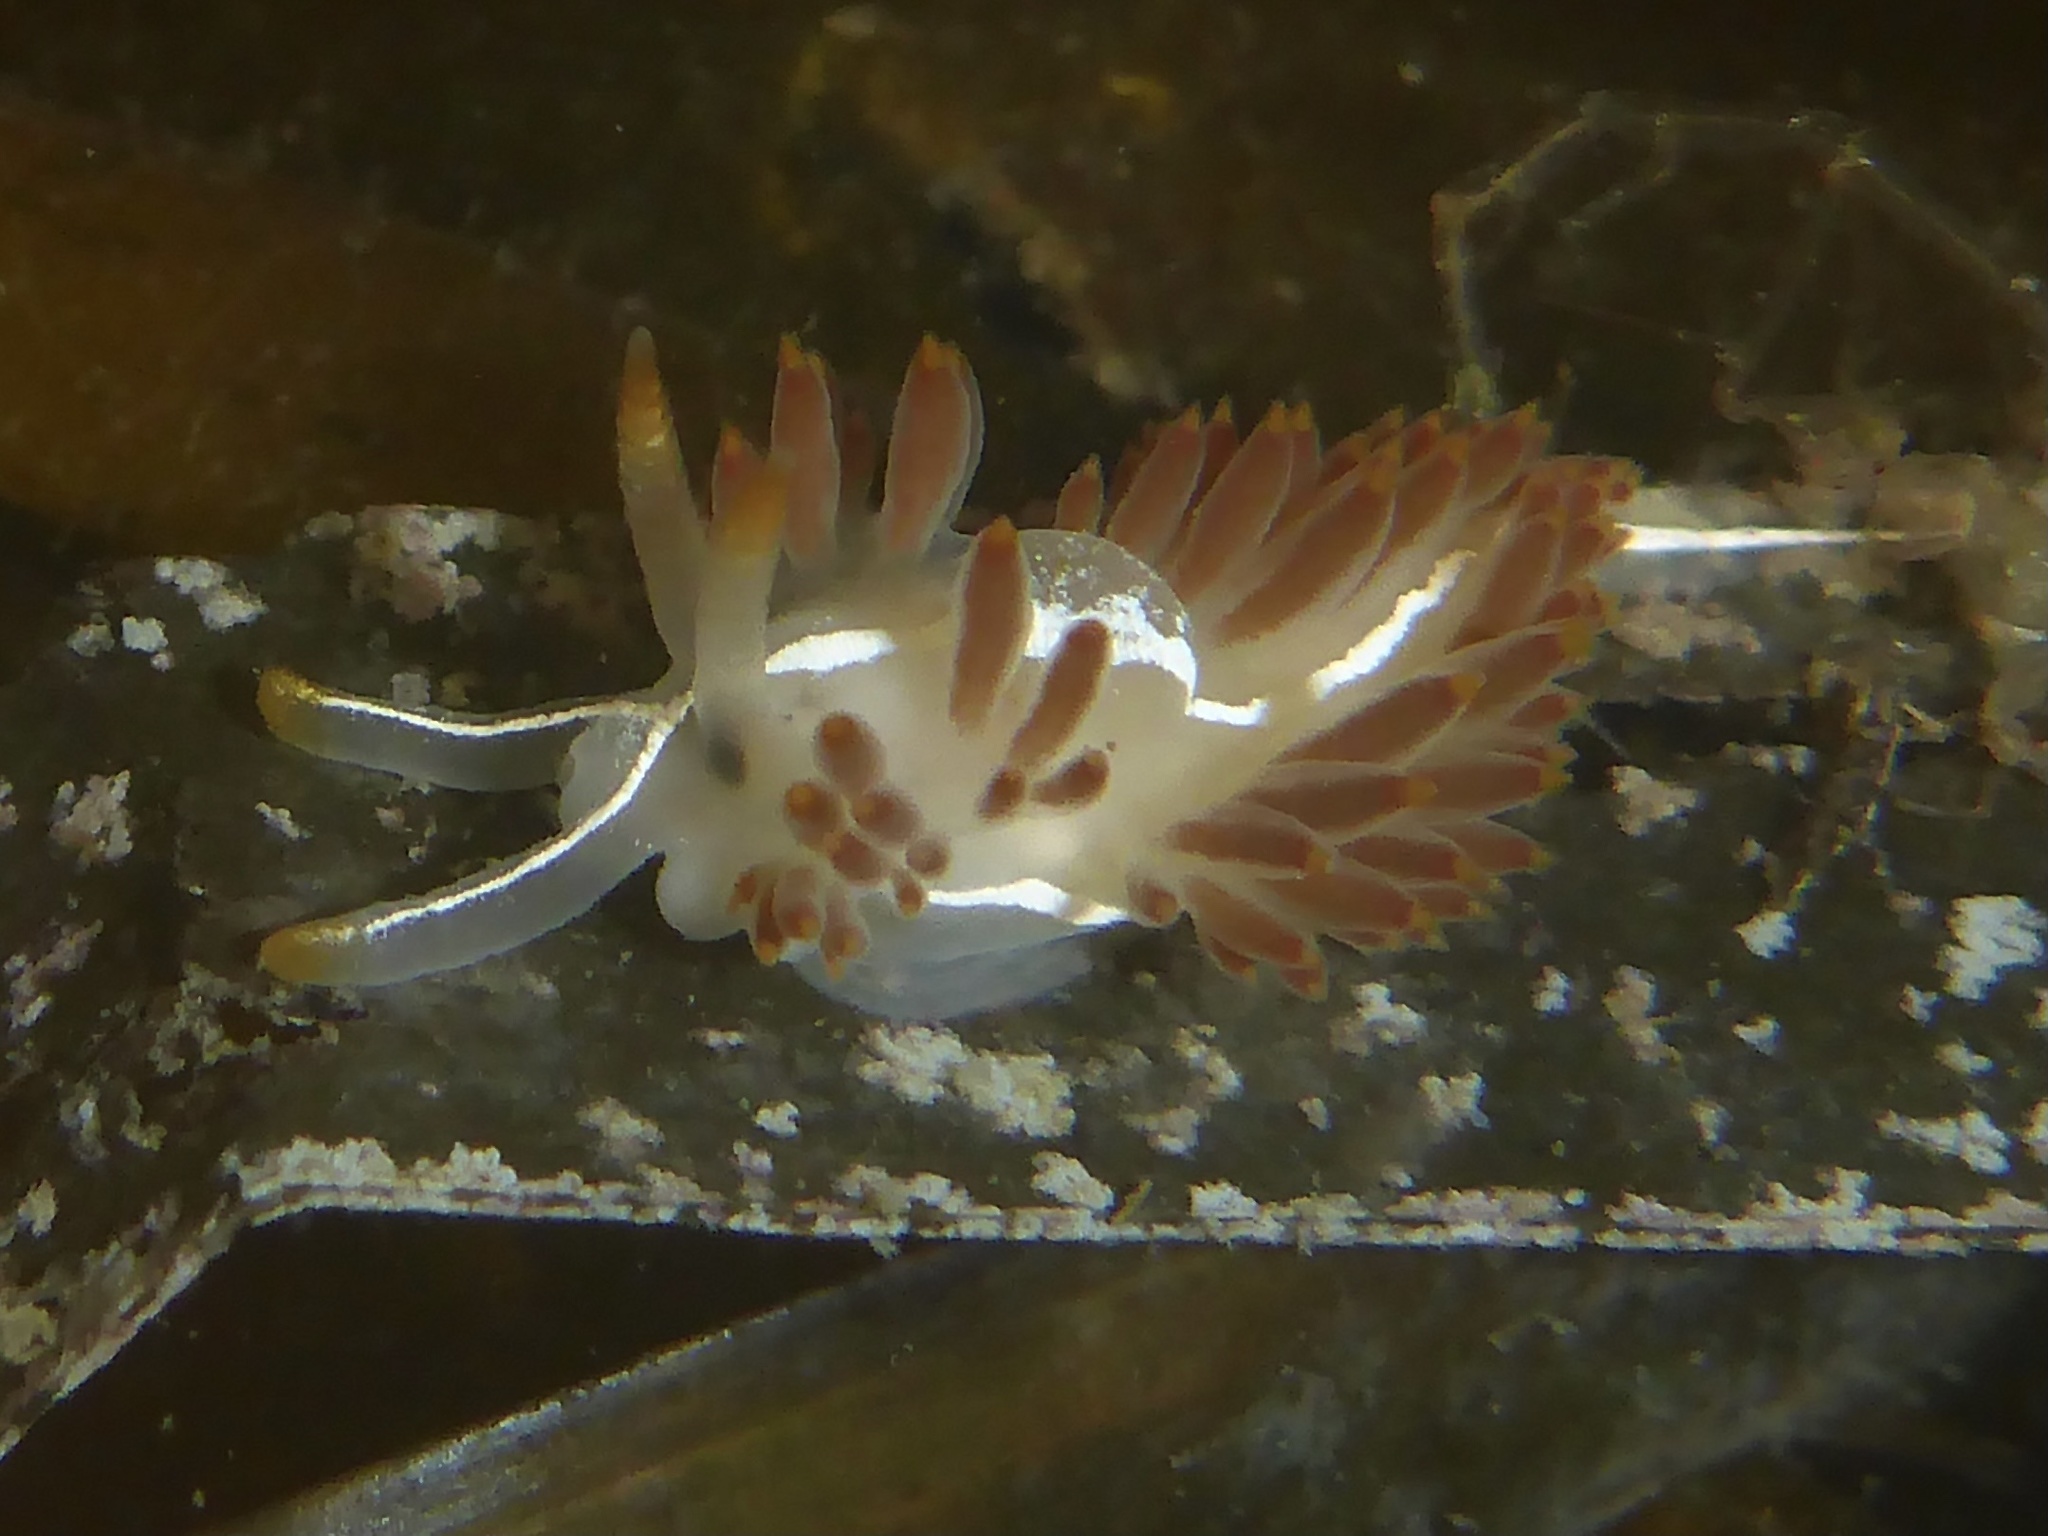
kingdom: Animalia
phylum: Mollusca
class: Gastropoda
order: Nudibranchia
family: Coryphellidae
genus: Coryphella
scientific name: Coryphella trilineata
